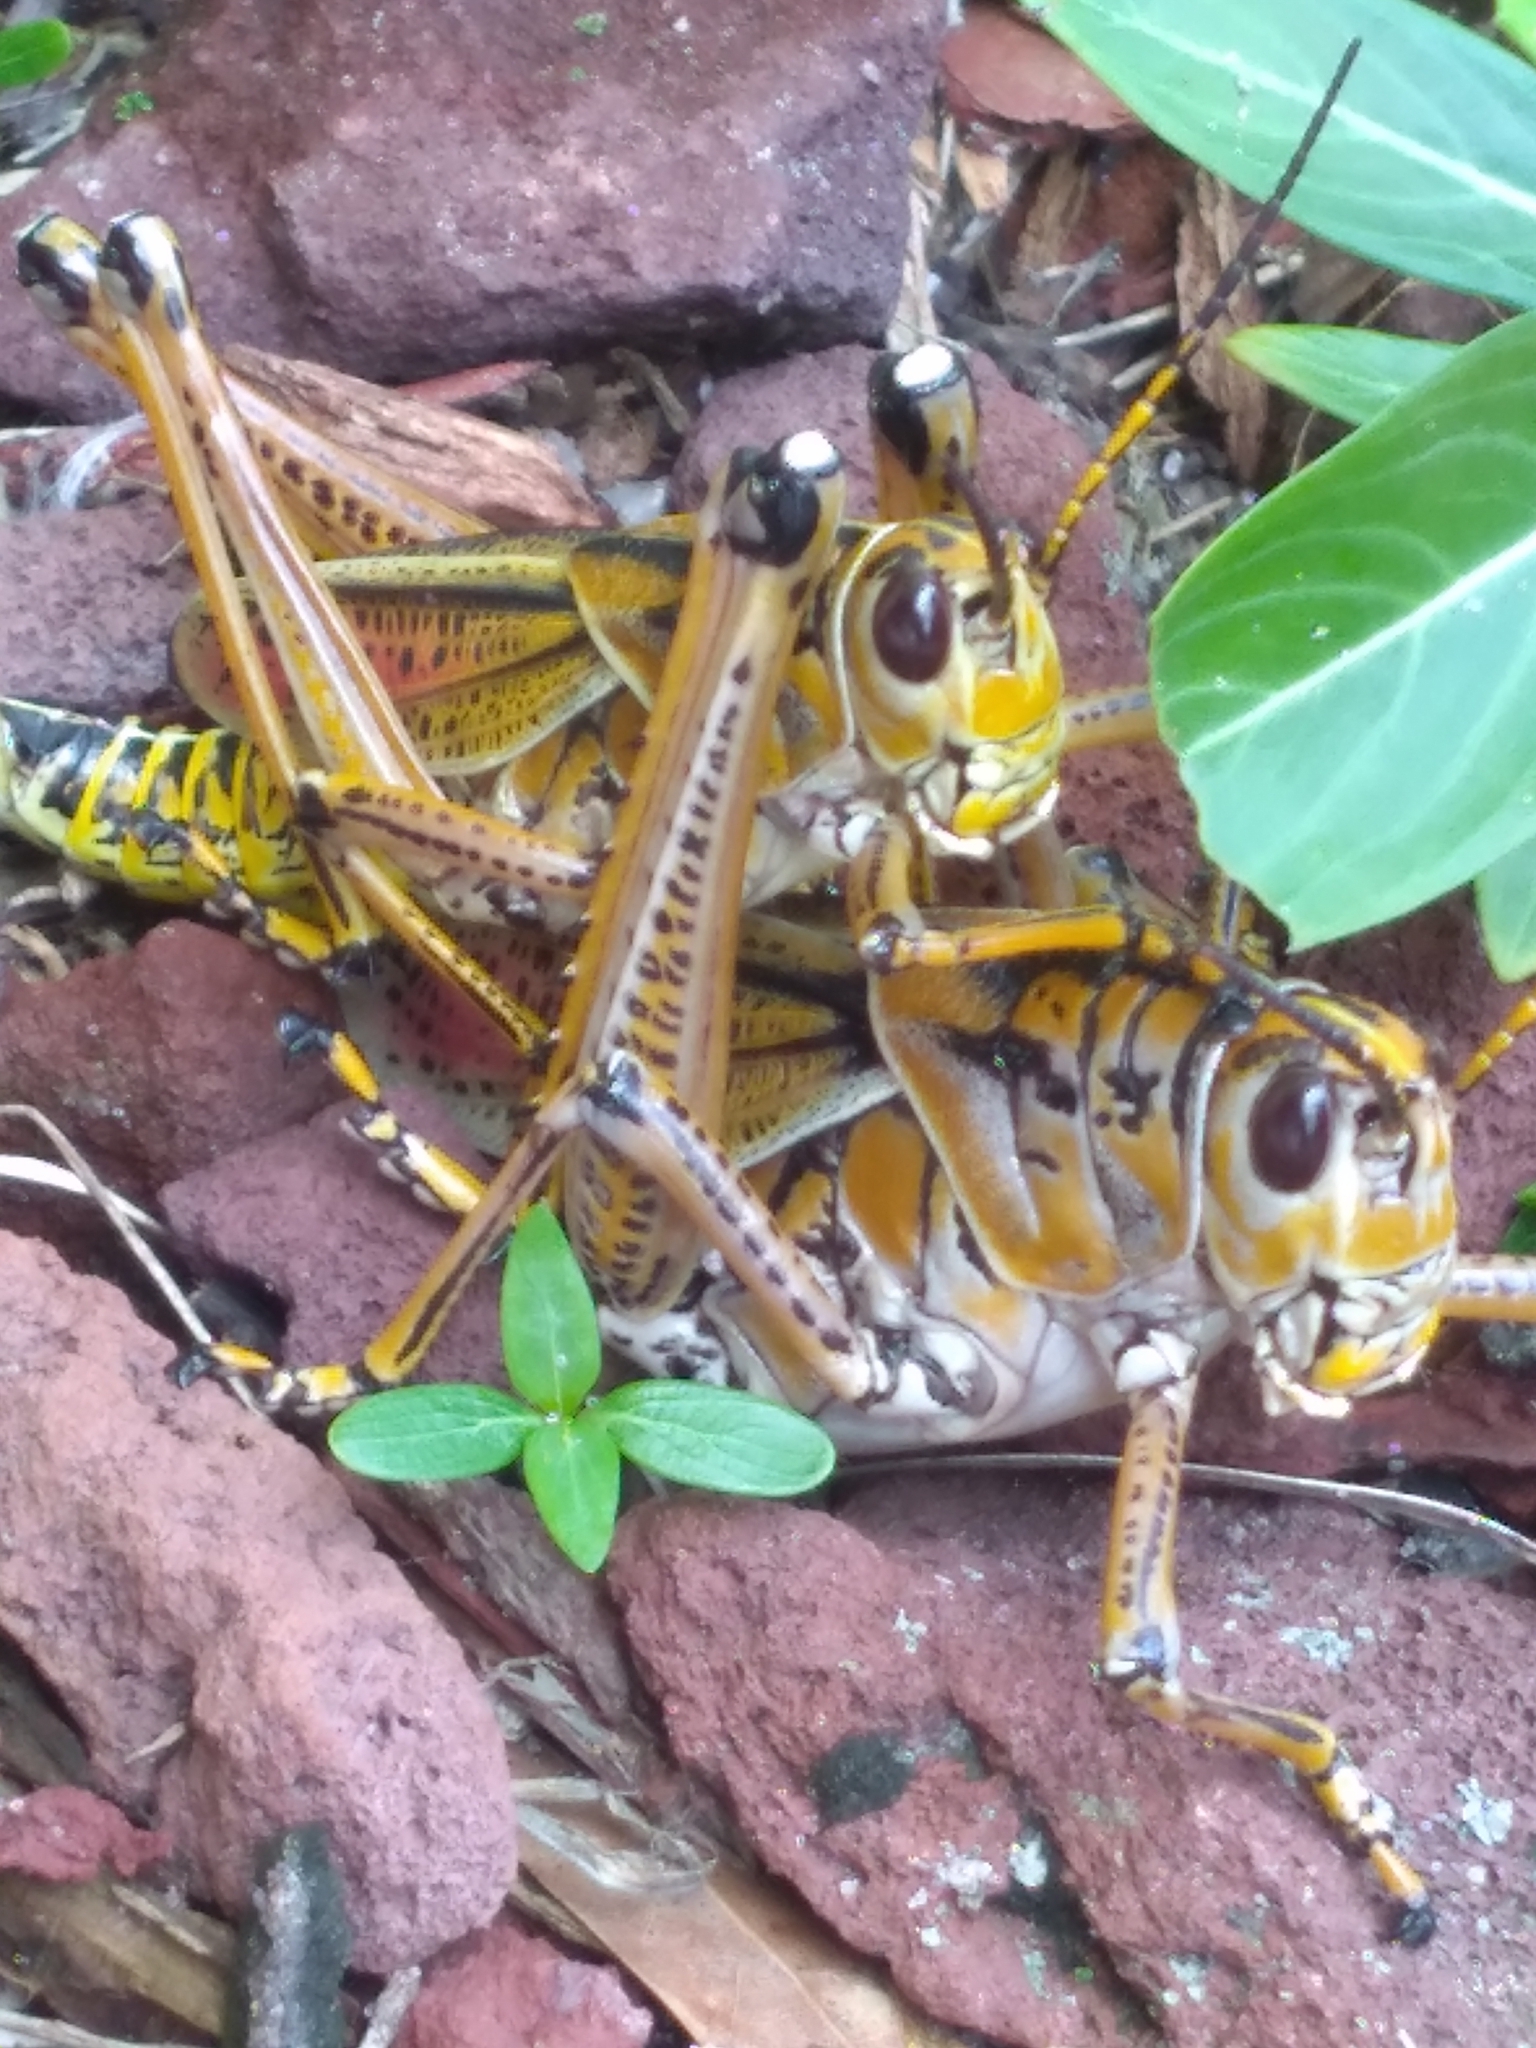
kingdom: Animalia
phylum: Arthropoda
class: Insecta
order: Orthoptera
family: Romaleidae
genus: Romalea
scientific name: Romalea microptera
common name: Eastern lubber grasshopper
